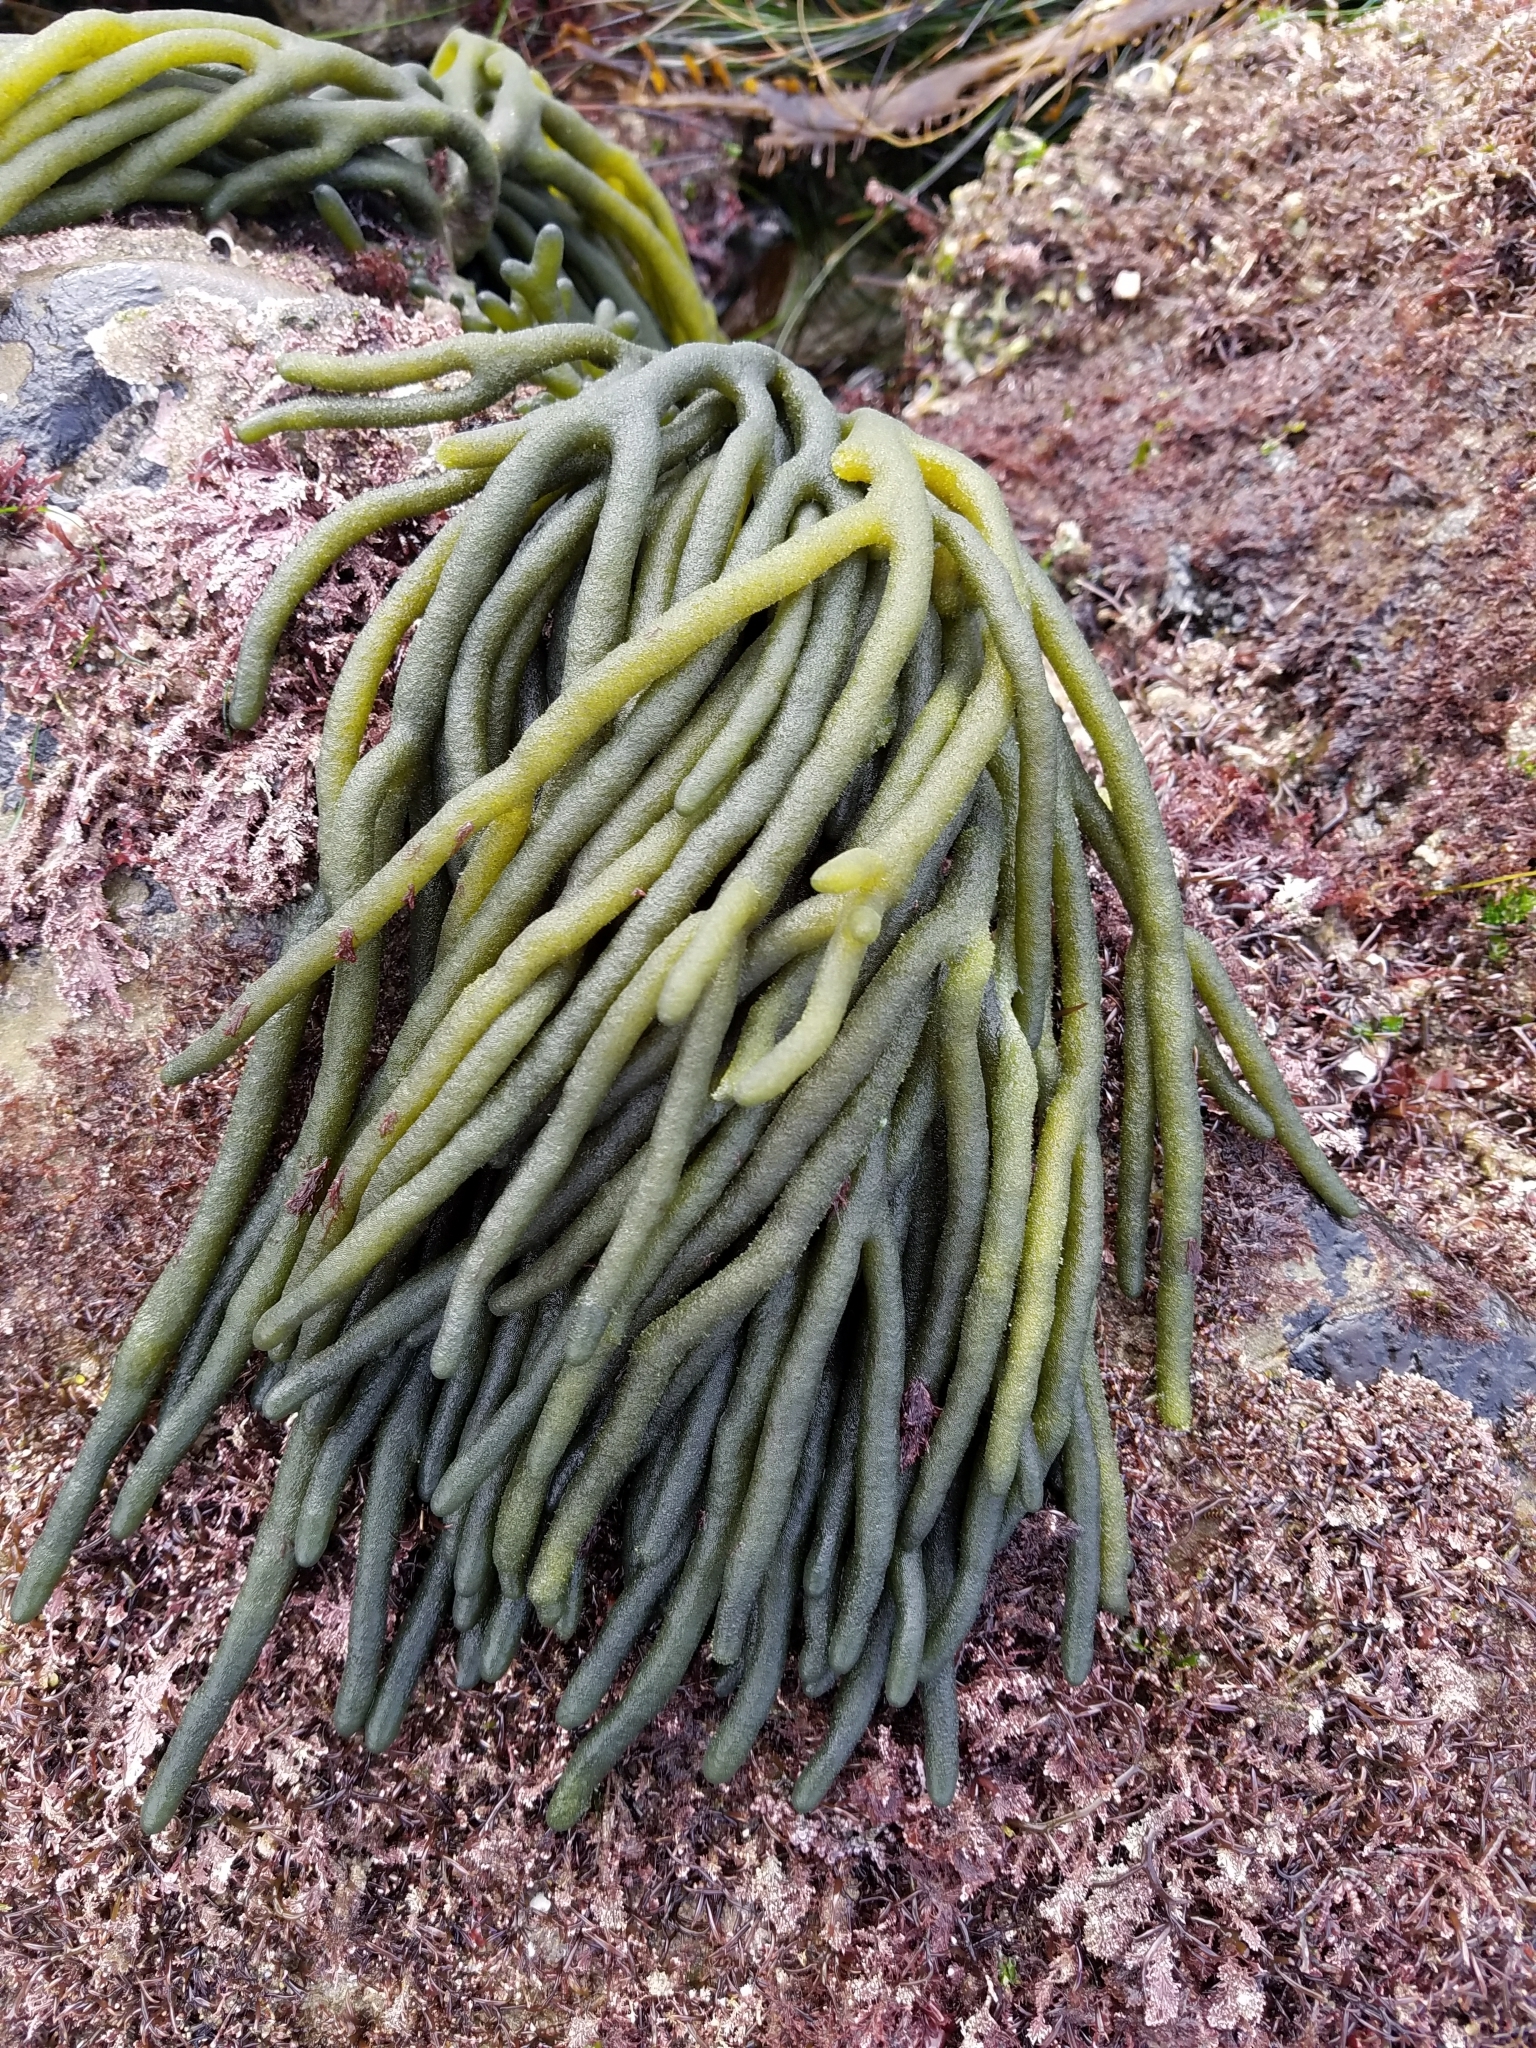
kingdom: Plantae
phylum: Chlorophyta
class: Ulvophyceae
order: Bryopsidales
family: Codiaceae
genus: Codium
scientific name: Codium fragile
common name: Dead man's fingers
